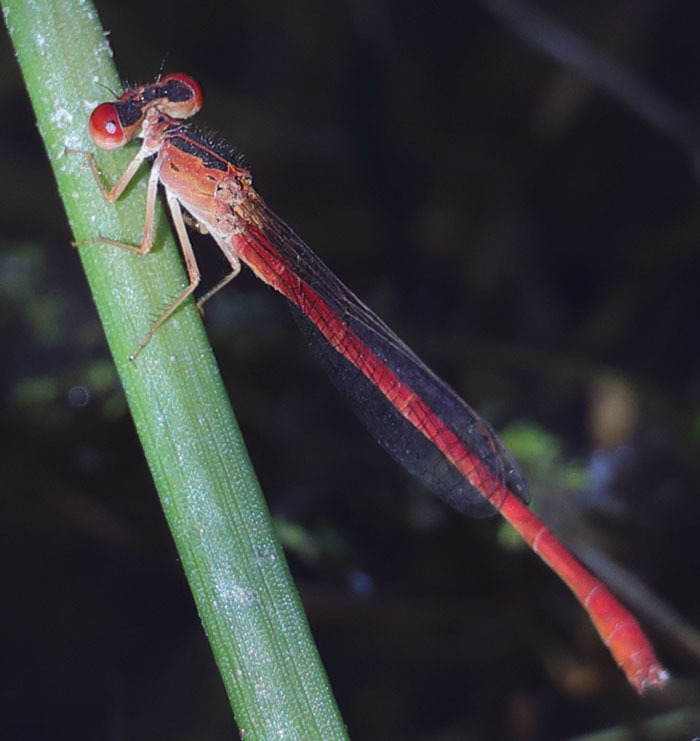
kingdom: Animalia
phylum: Arthropoda
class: Insecta
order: Odonata
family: Coenagrionidae
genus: Telebasis
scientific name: Telebasis salva
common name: Desert firetail
